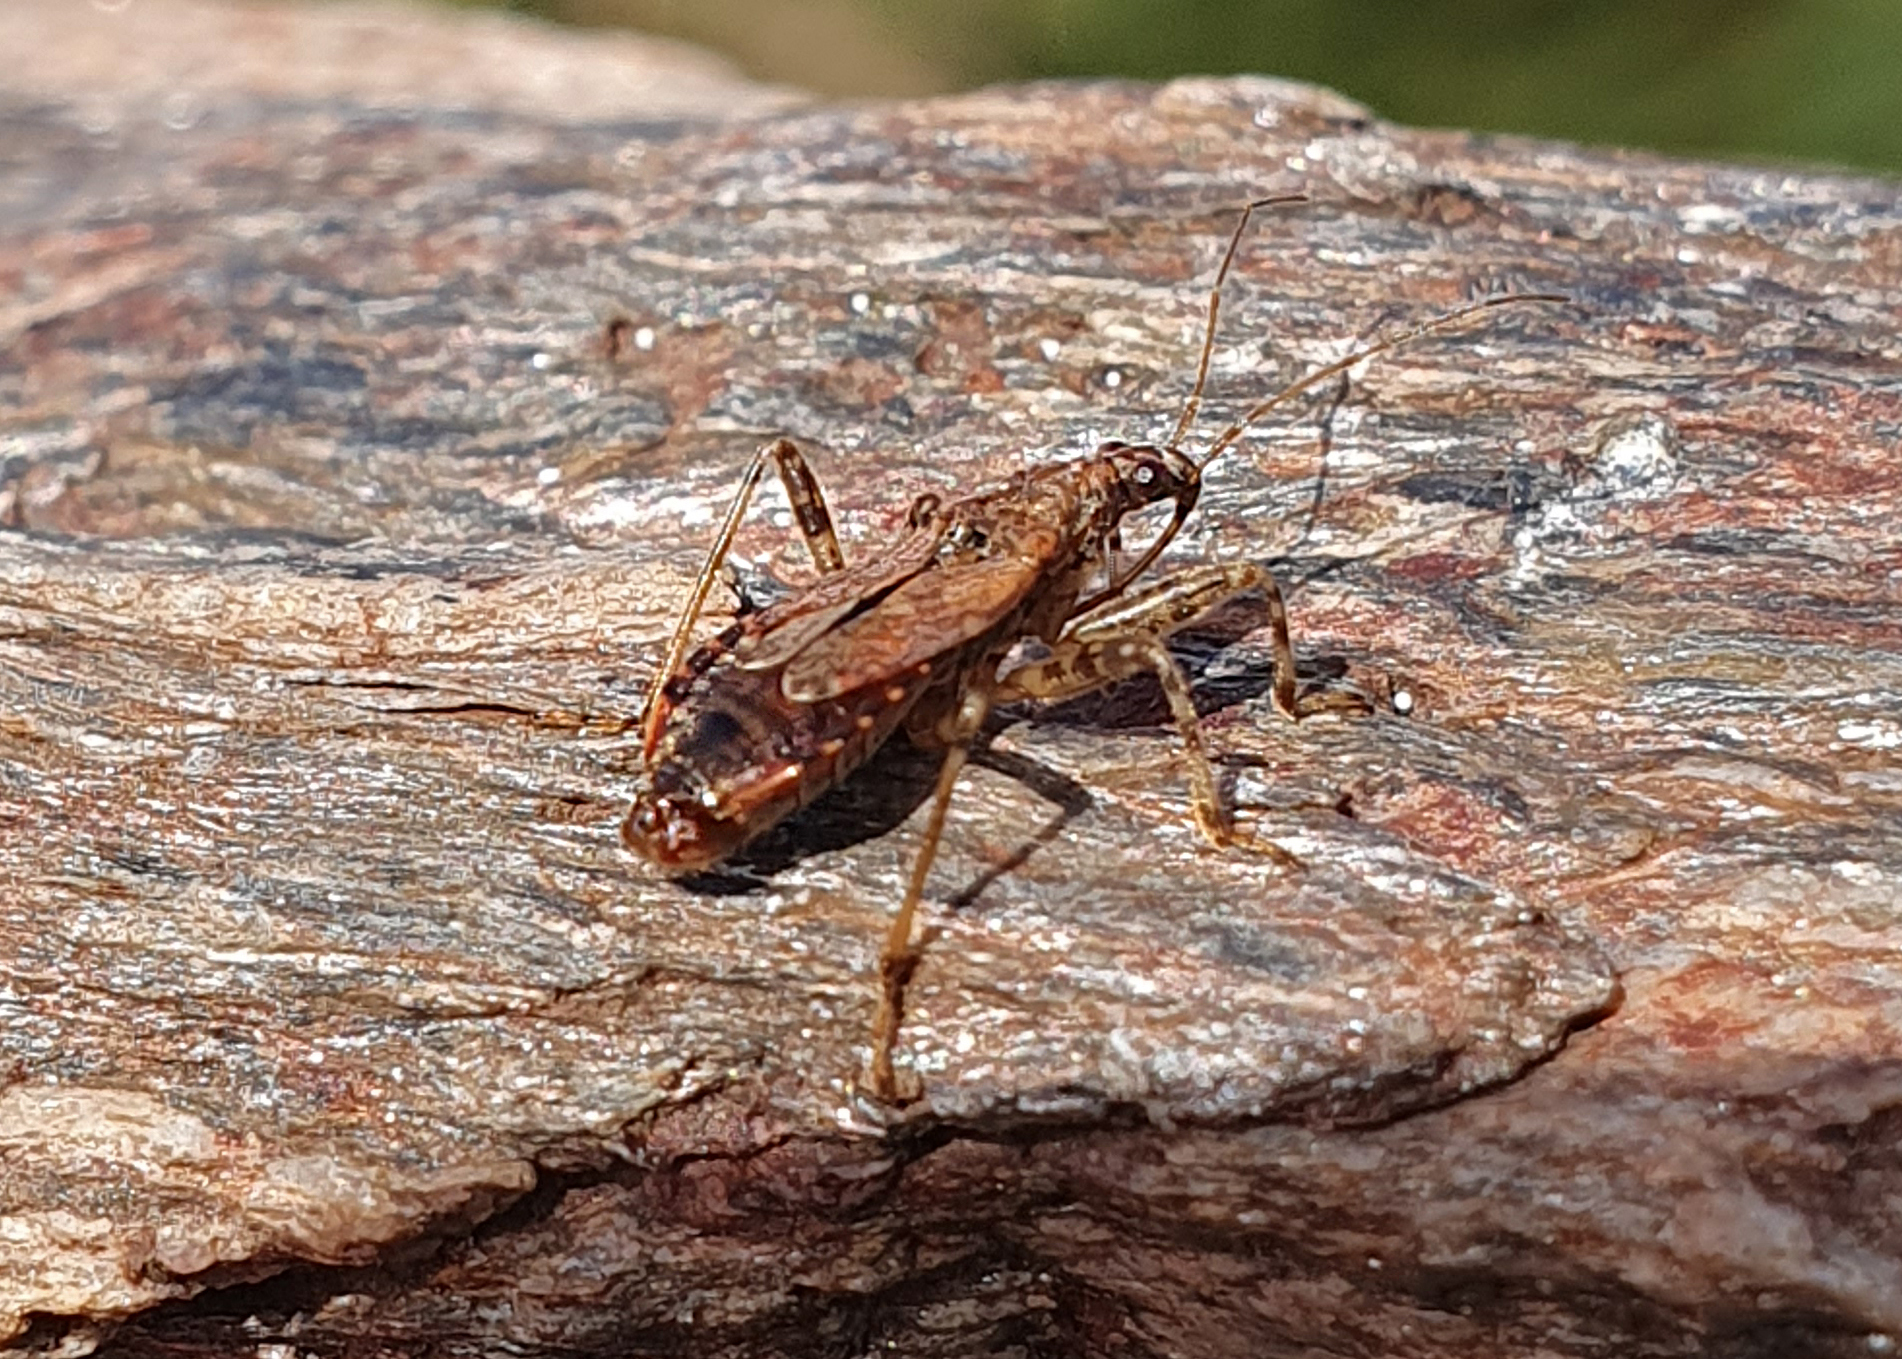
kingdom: Animalia
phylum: Arthropoda
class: Insecta
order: Hemiptera
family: Nabidae
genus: Himacerus
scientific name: Himacerus mirmicoides
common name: Ant damsel bug
